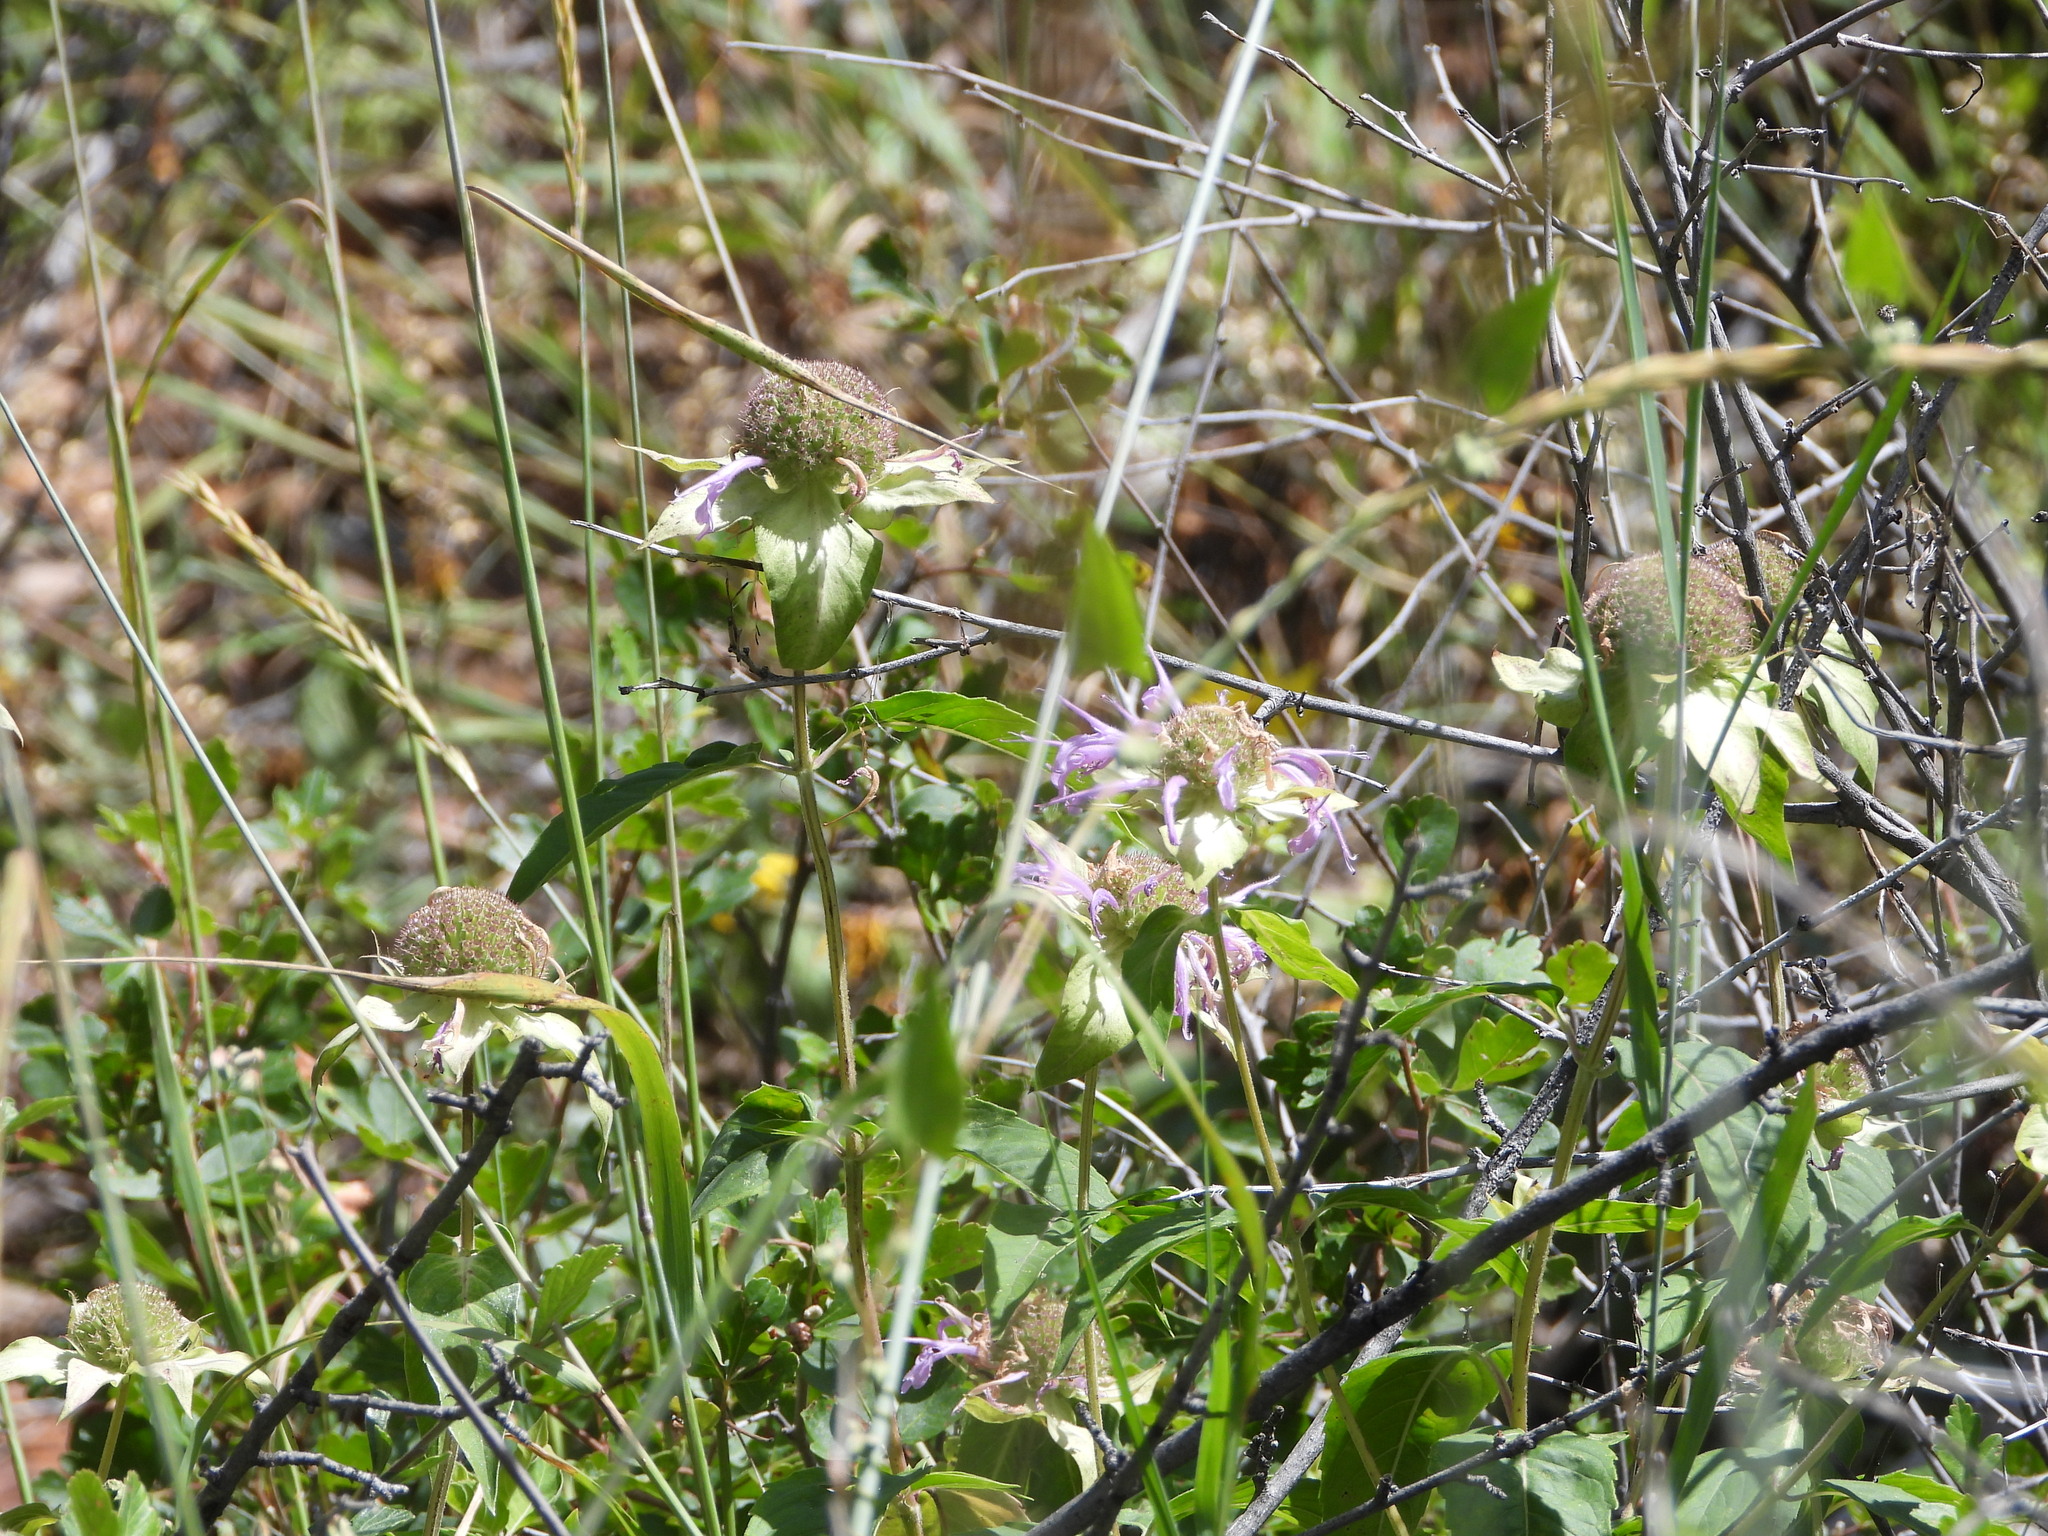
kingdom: Plantae
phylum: Tracheophyta
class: Magnoliopsida
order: Lamiales
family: Lamiaceae
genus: Monarda
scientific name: Monarda fistulosa
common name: Purple beebalm
